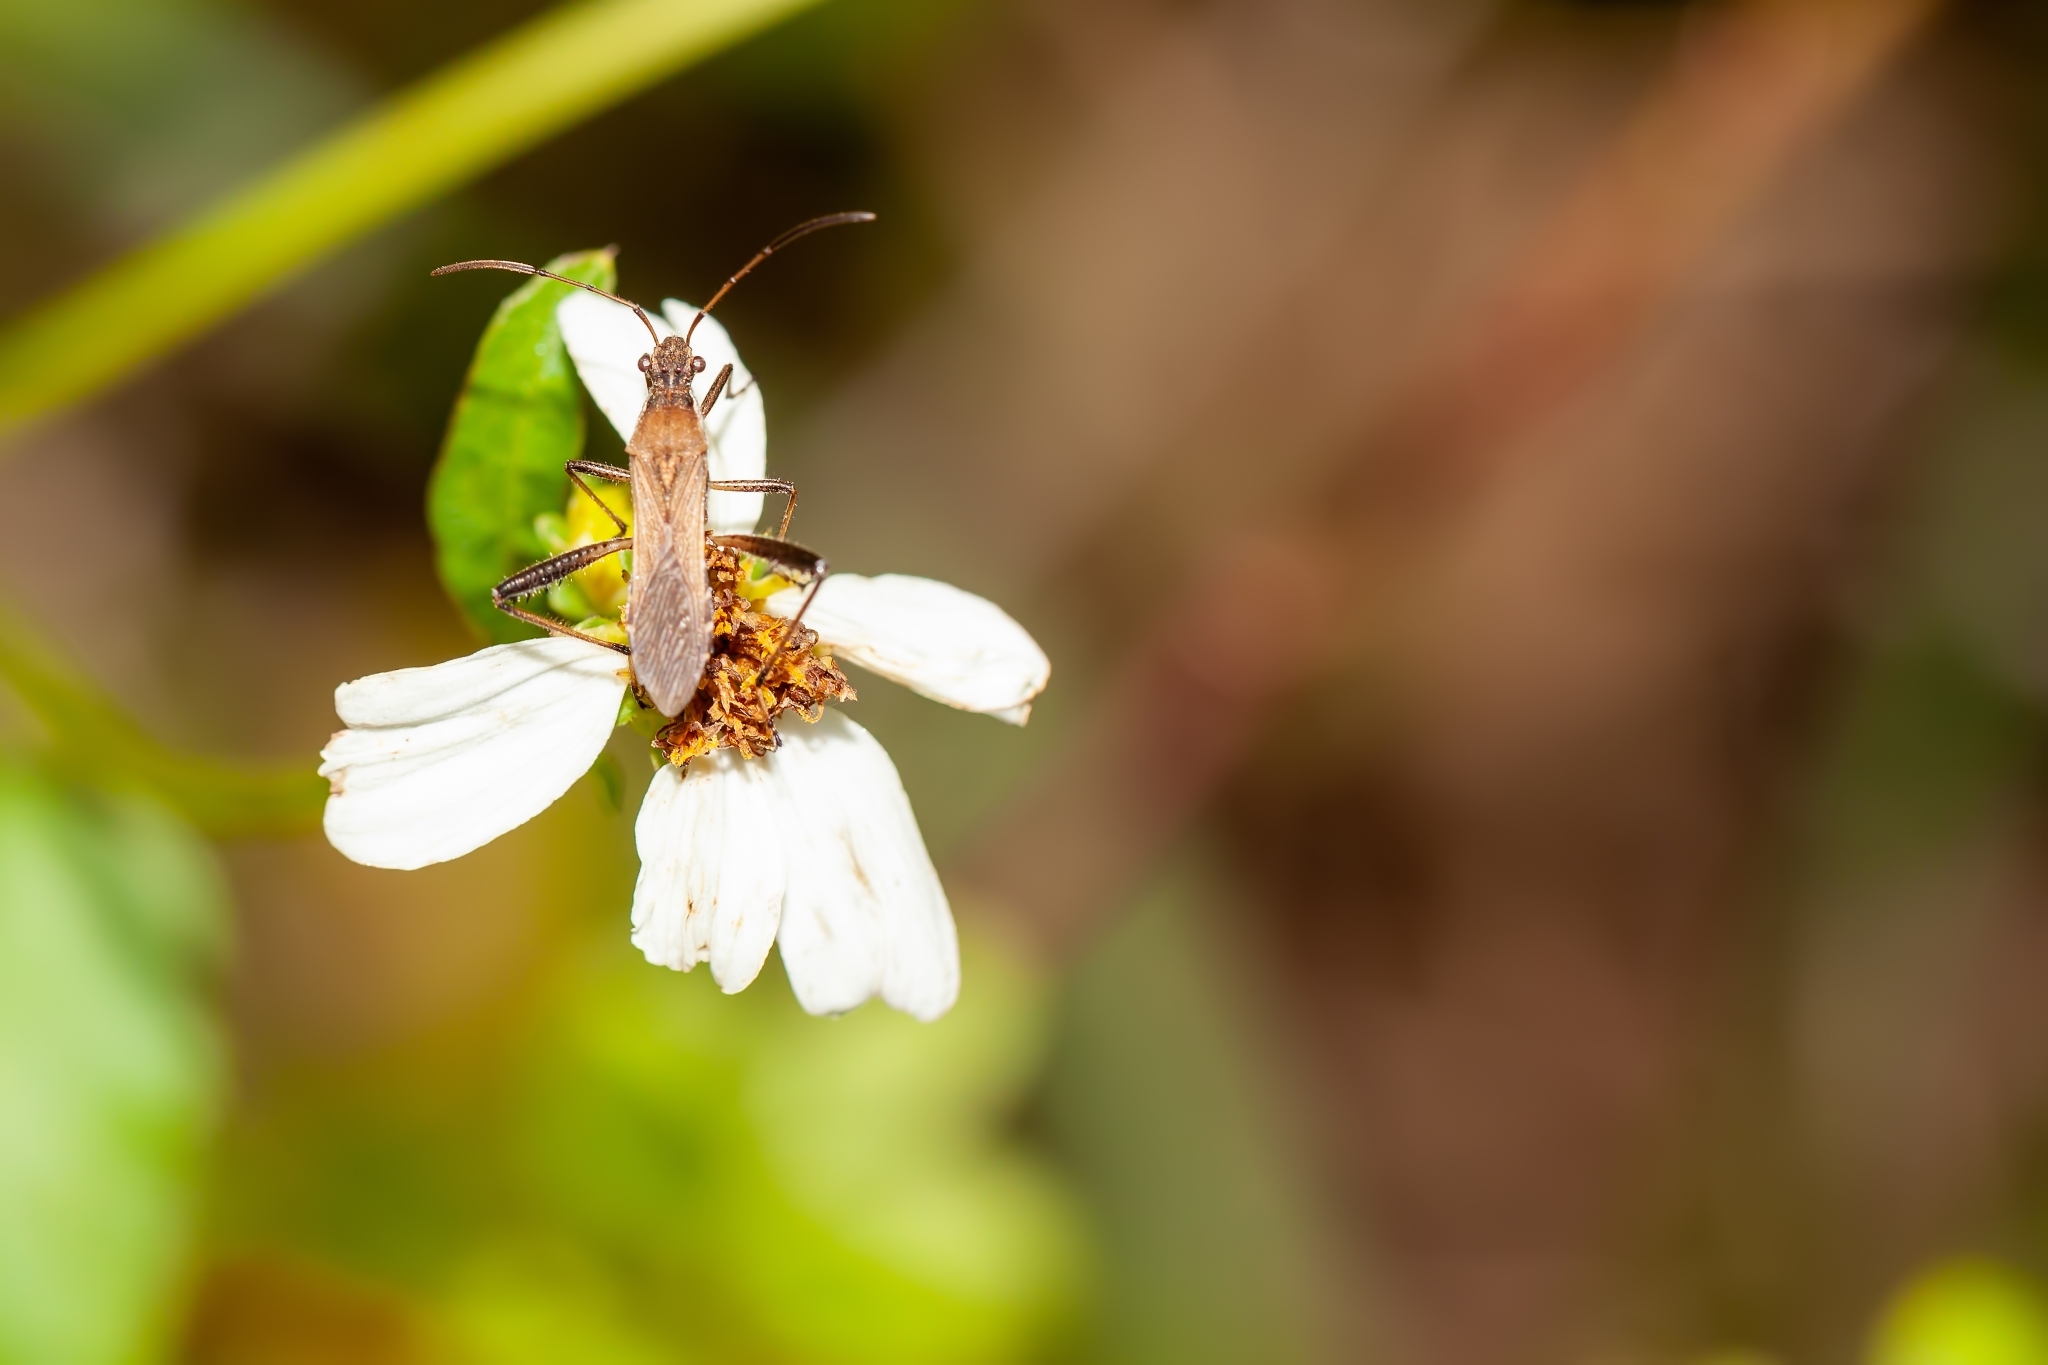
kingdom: Animalia
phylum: Arthropoda
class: Insecta
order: Hemiptera
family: Alydidae
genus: Alydus
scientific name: Alydus pilosulus
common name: Broad-headed bug
